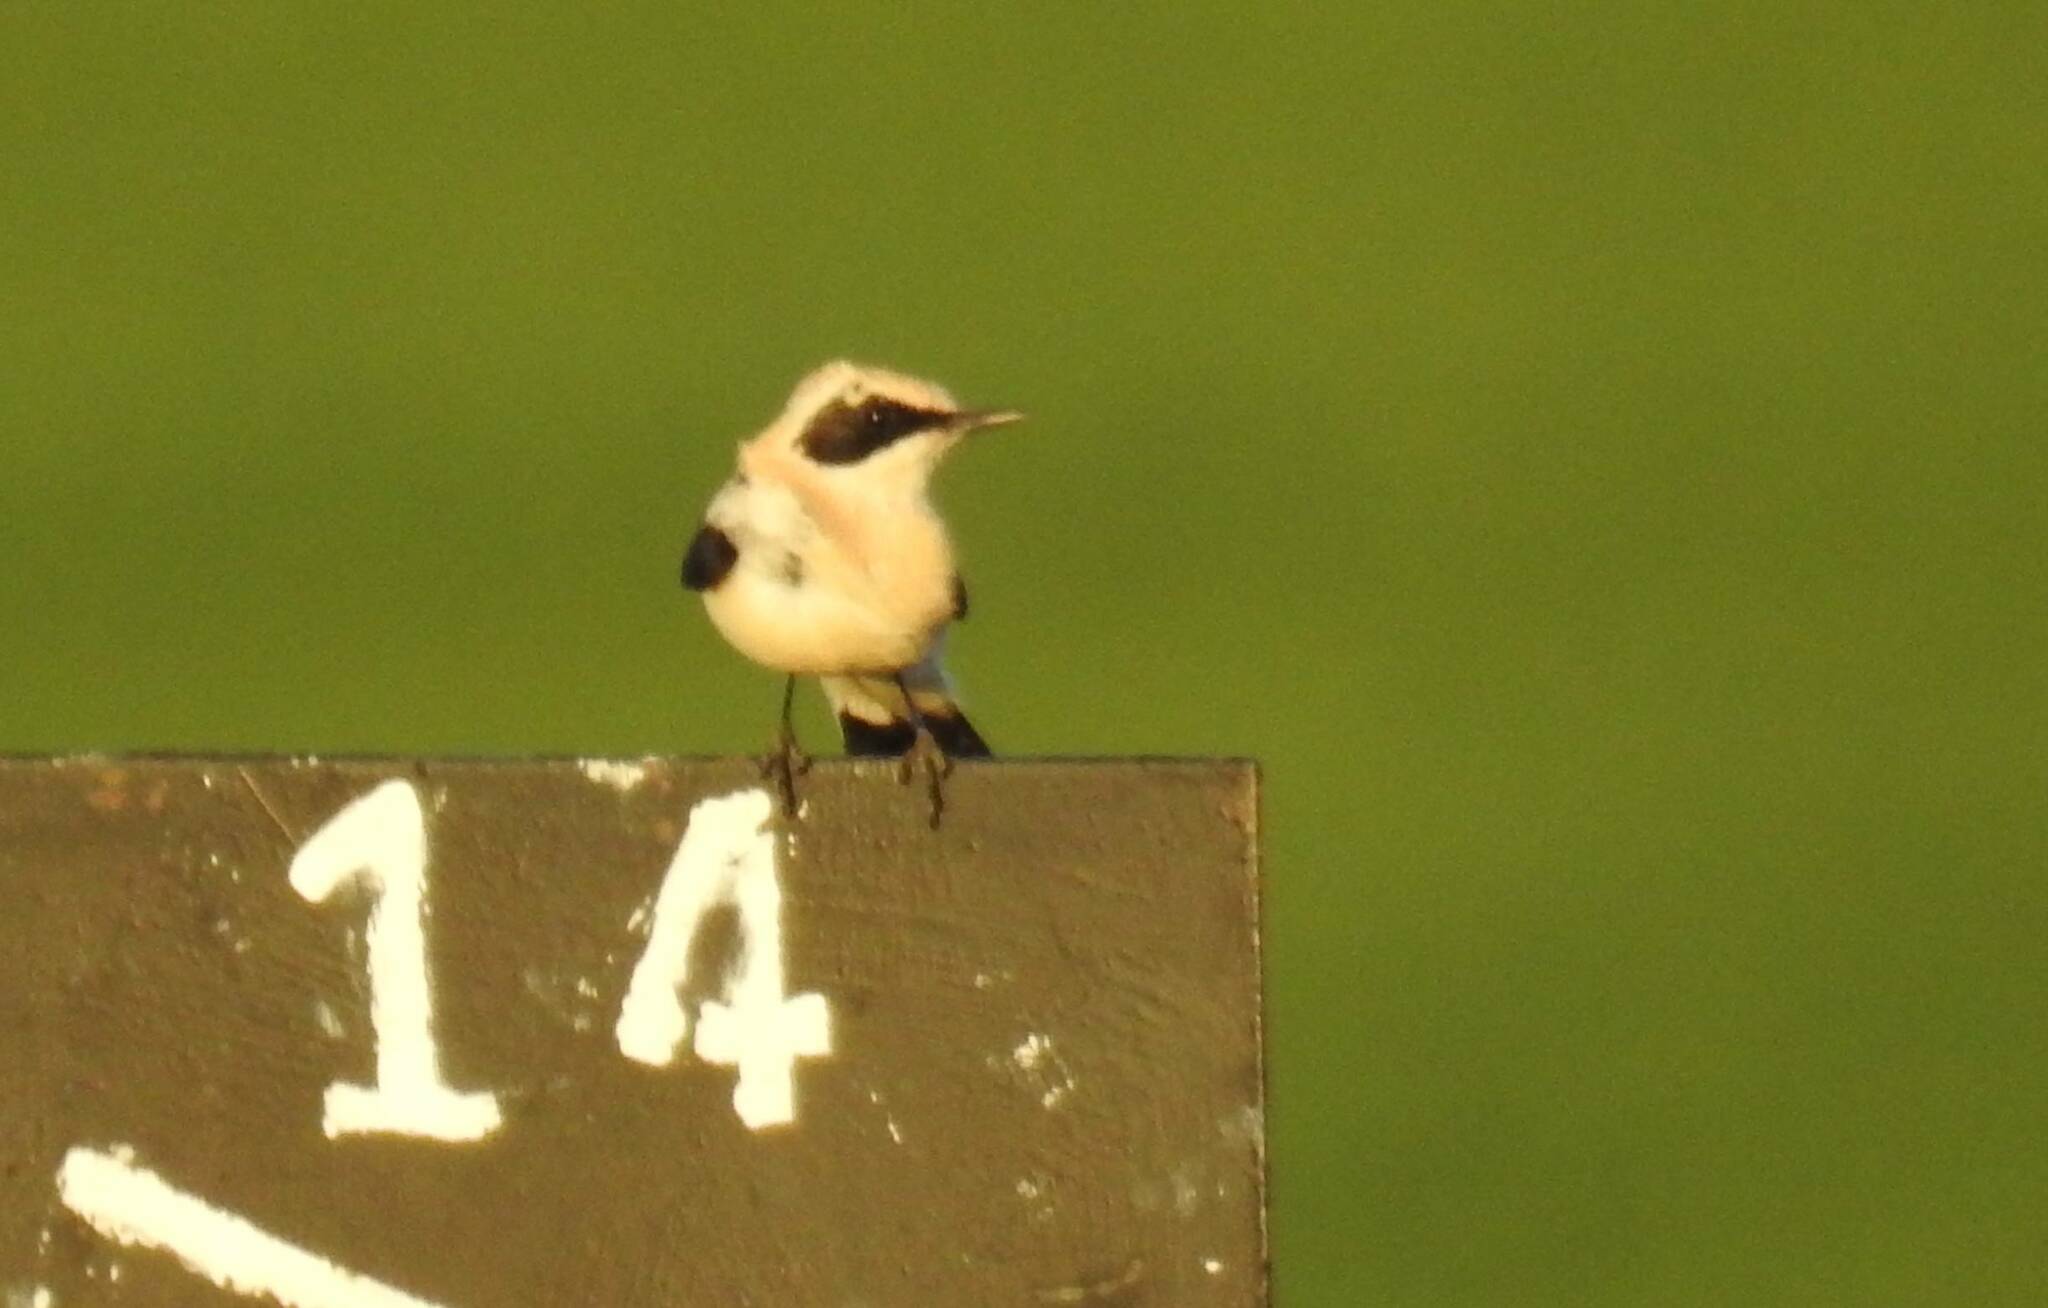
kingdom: Animalia
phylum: Chordata
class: Aves
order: Passeriformes
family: Muscicapidae
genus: Oenanthe
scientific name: Oenanthe hispanica
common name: Black-eared wheatear
